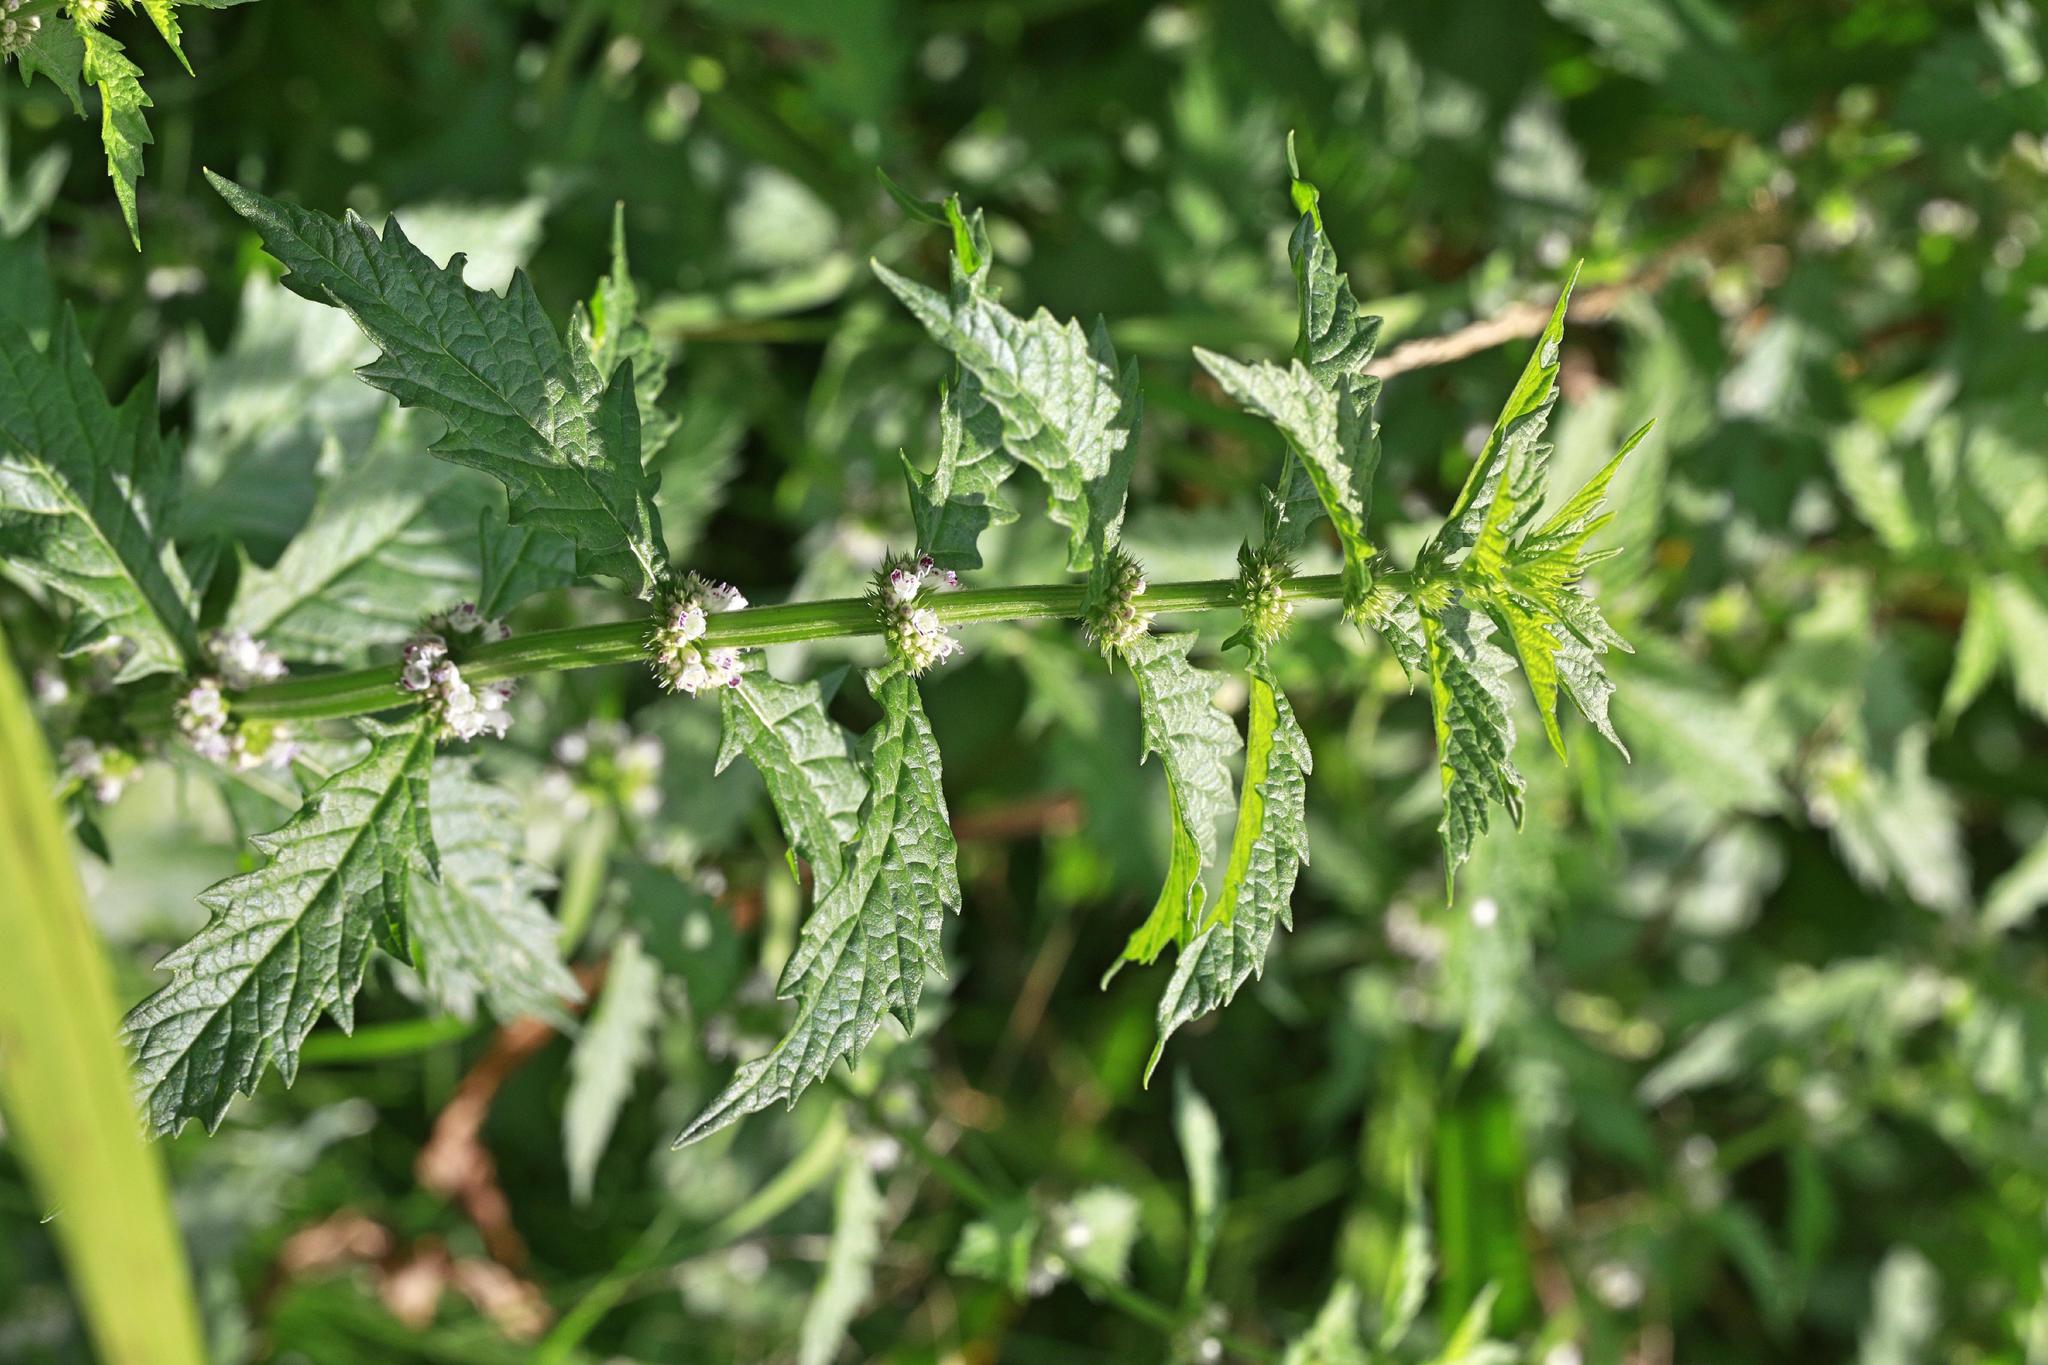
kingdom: Plantae
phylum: Tracheophyta
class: Magnoliopsida
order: Lamiales
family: Lamiaceae
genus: Lycopus
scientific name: Lycopus europaeus
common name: European bugleweed
